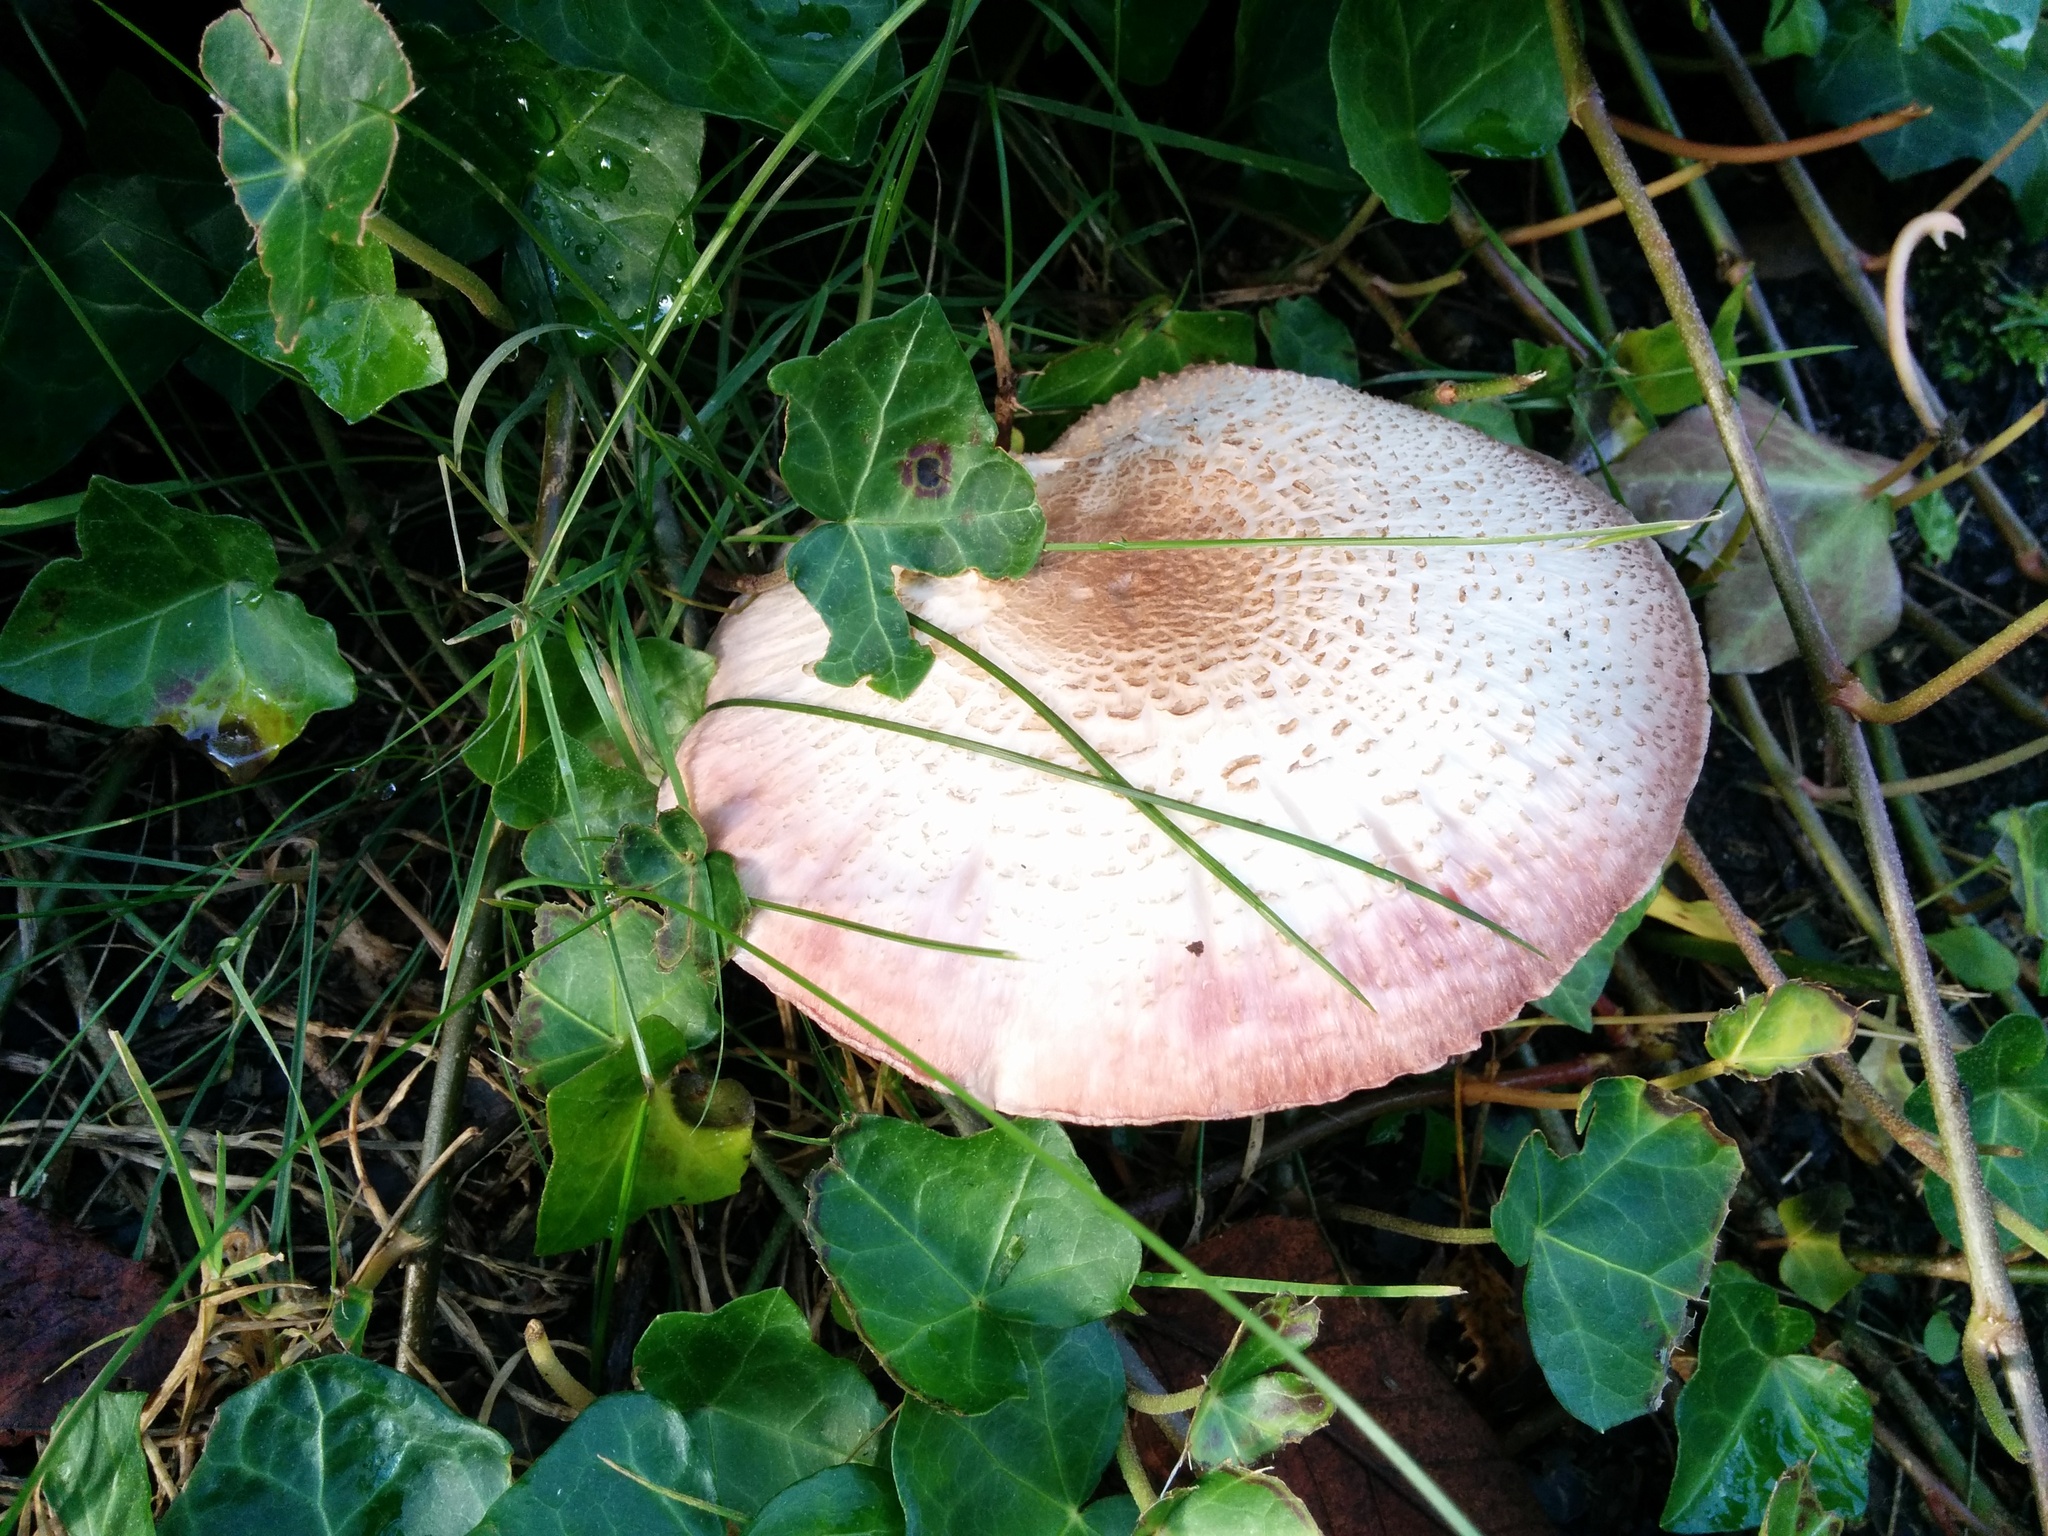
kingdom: Fungi
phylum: Basidiomycota
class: Agaricomycetes
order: Agaricales
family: Agaricaceae
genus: Agaricus
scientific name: Agaricus sylvaticus
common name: Blushing wood mushroom
